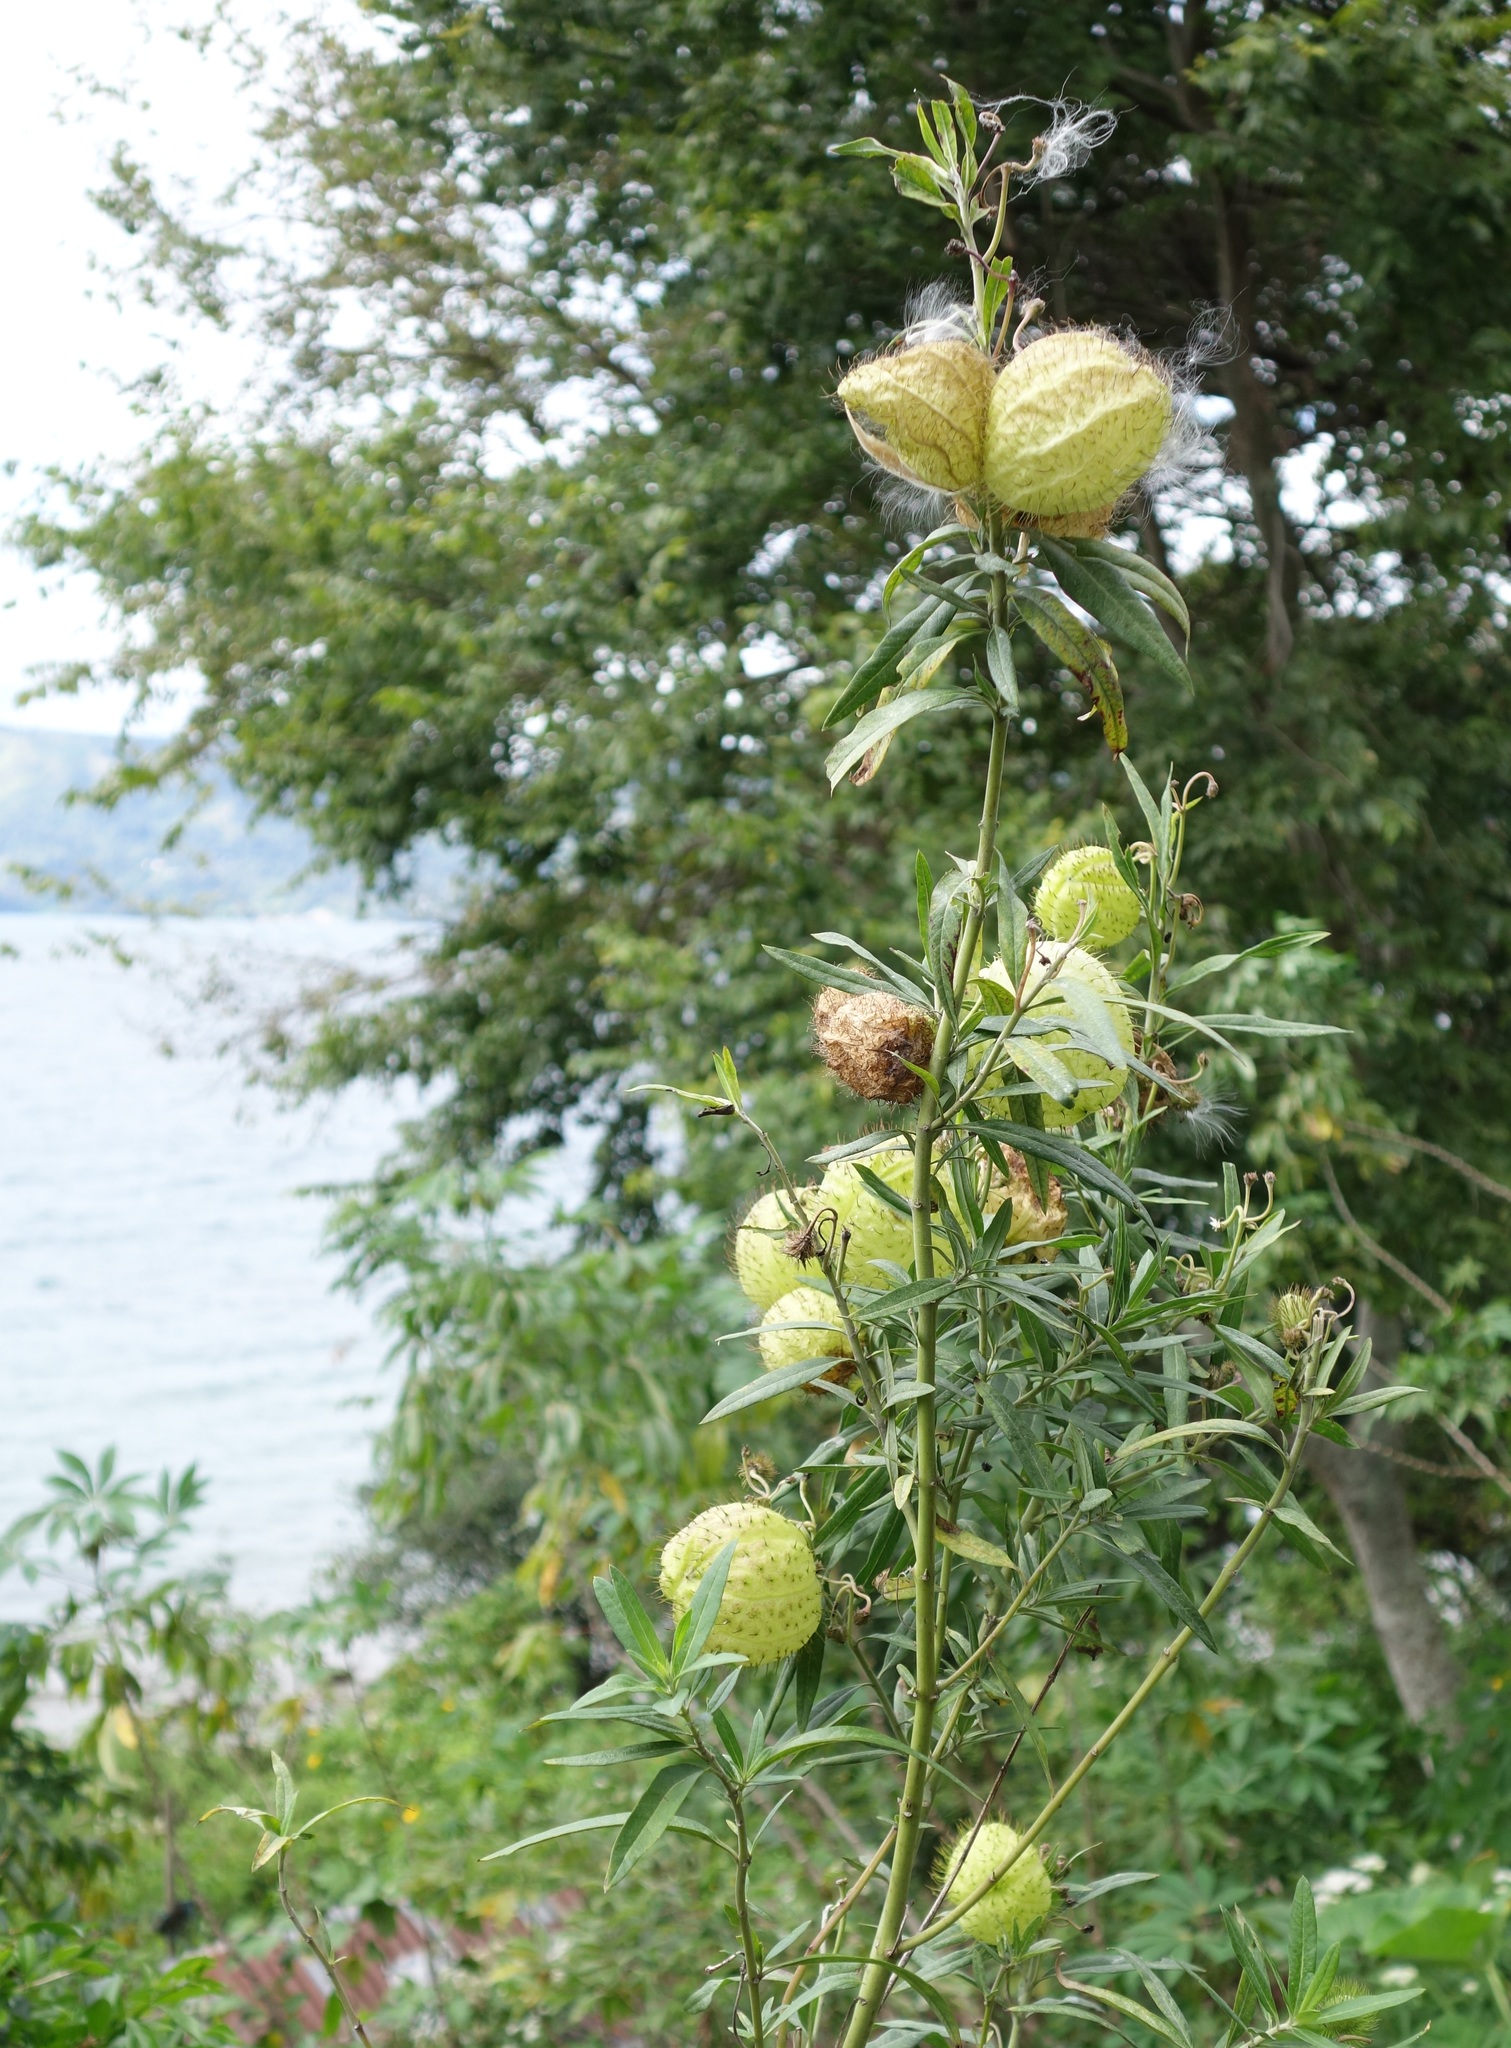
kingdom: Plantae
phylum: Tracheophyta
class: Magnoliopsida
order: Gentianales
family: Apocynaceae
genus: Gomphocarpus
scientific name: Gomphocarpus physocarpus
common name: Balloon cotton bush
